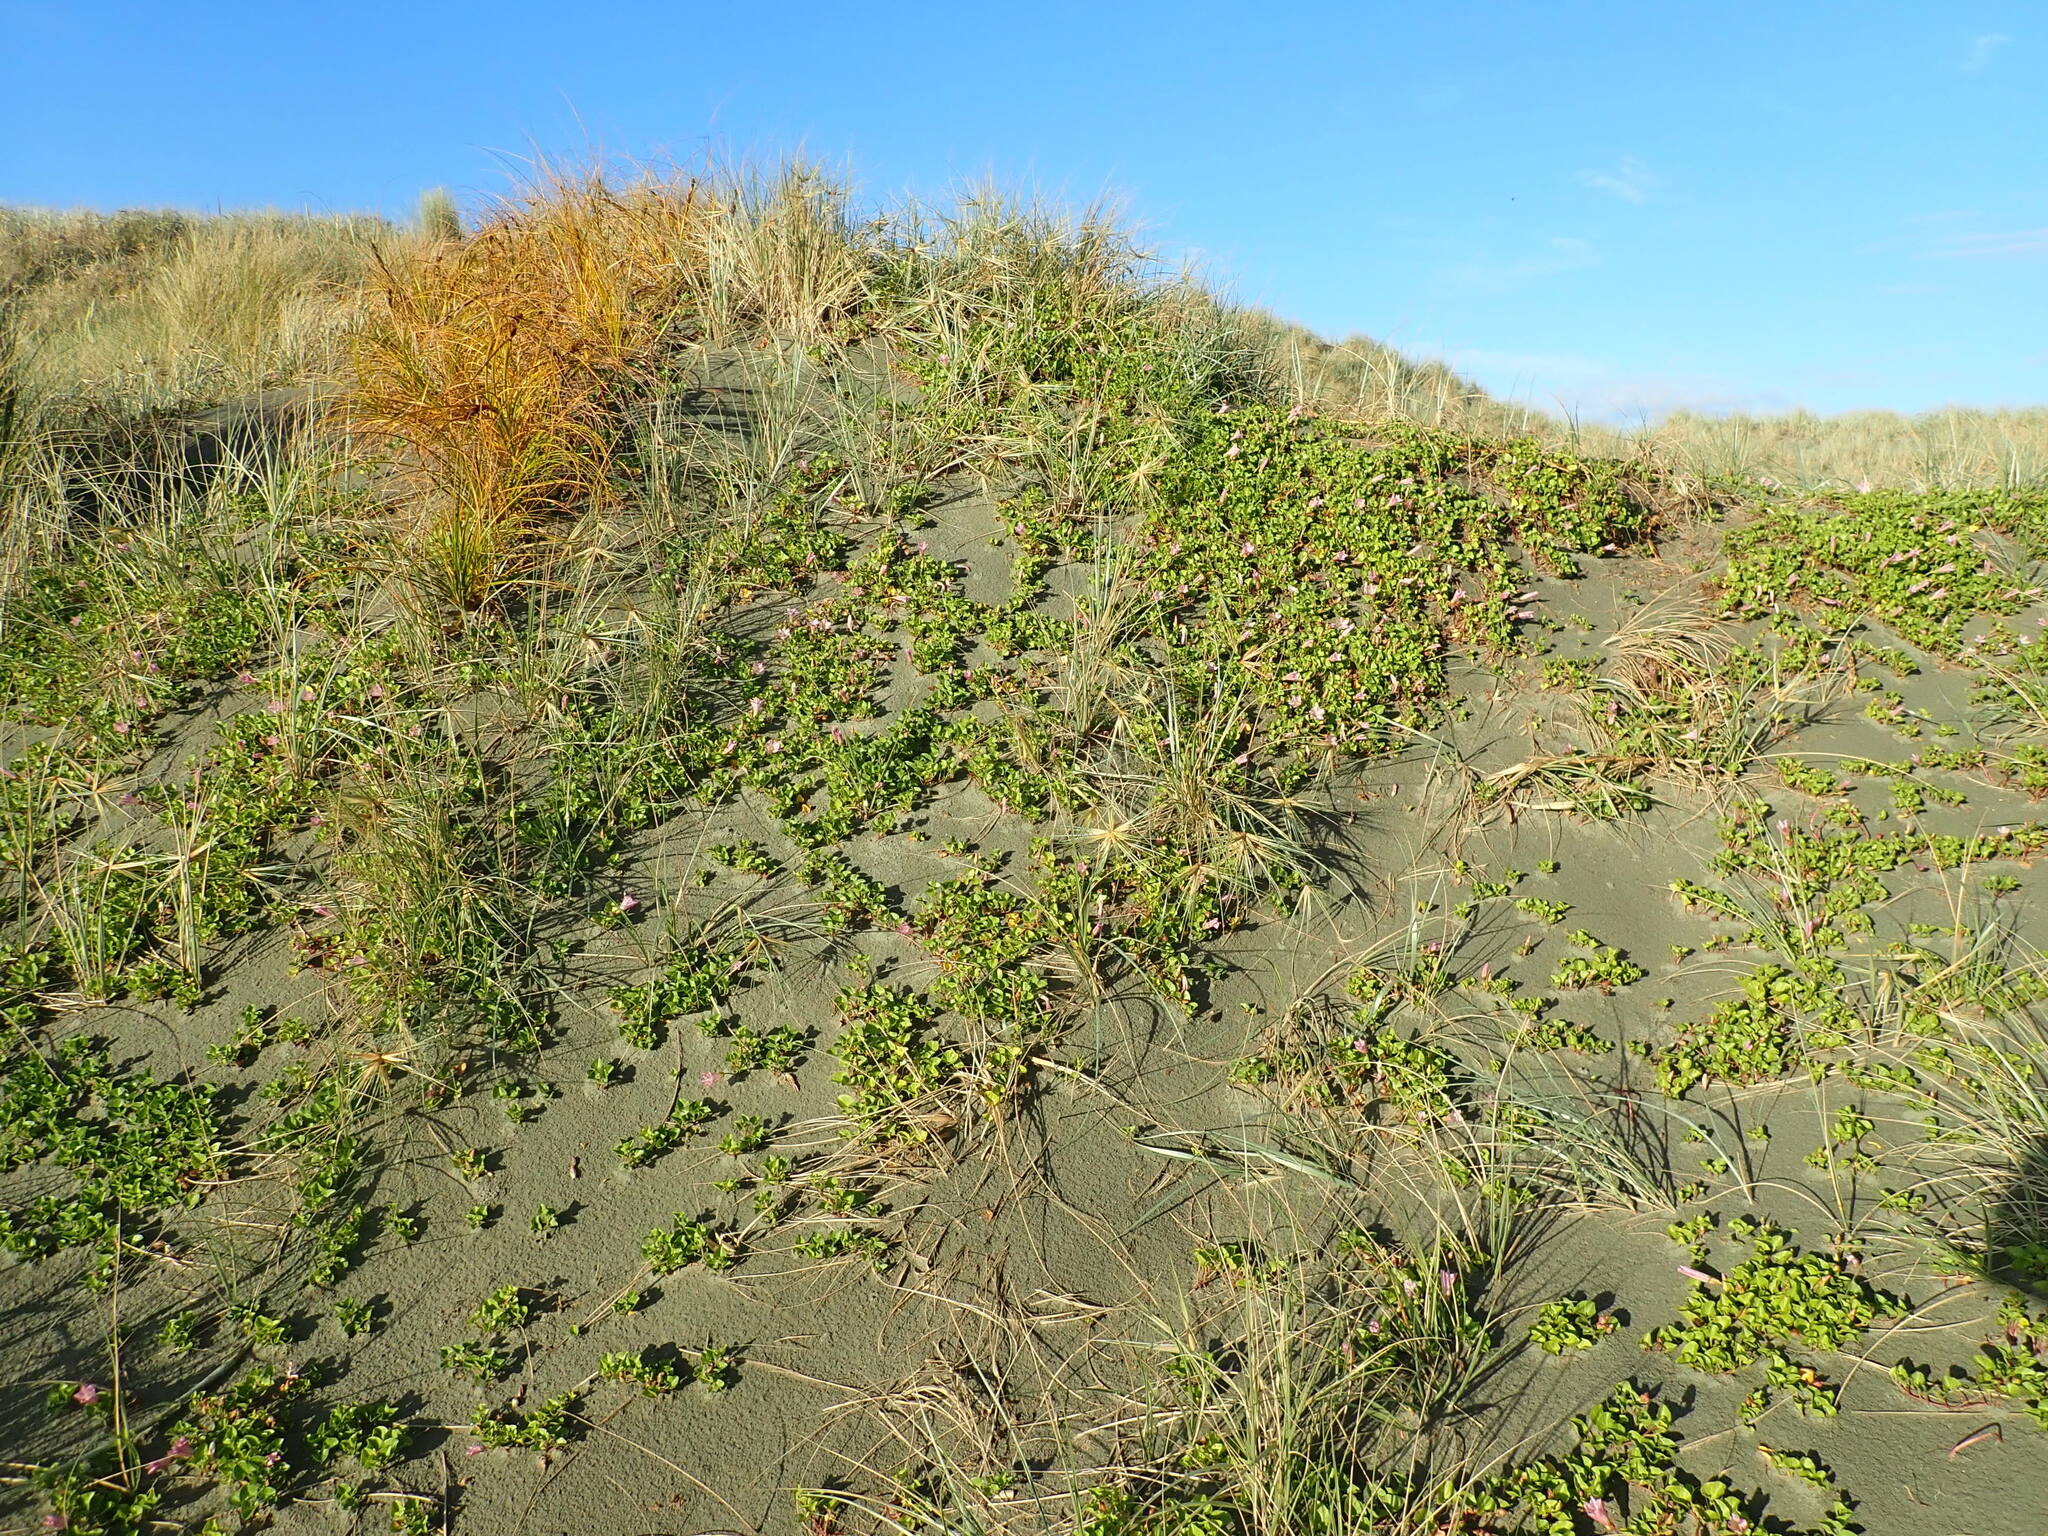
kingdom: Plantae
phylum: Tracheophyta
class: Magnoliopsida
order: Solanales
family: Convolvulaceae
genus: Calystegia
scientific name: Calystegia soldanella
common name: Sea bindweed
